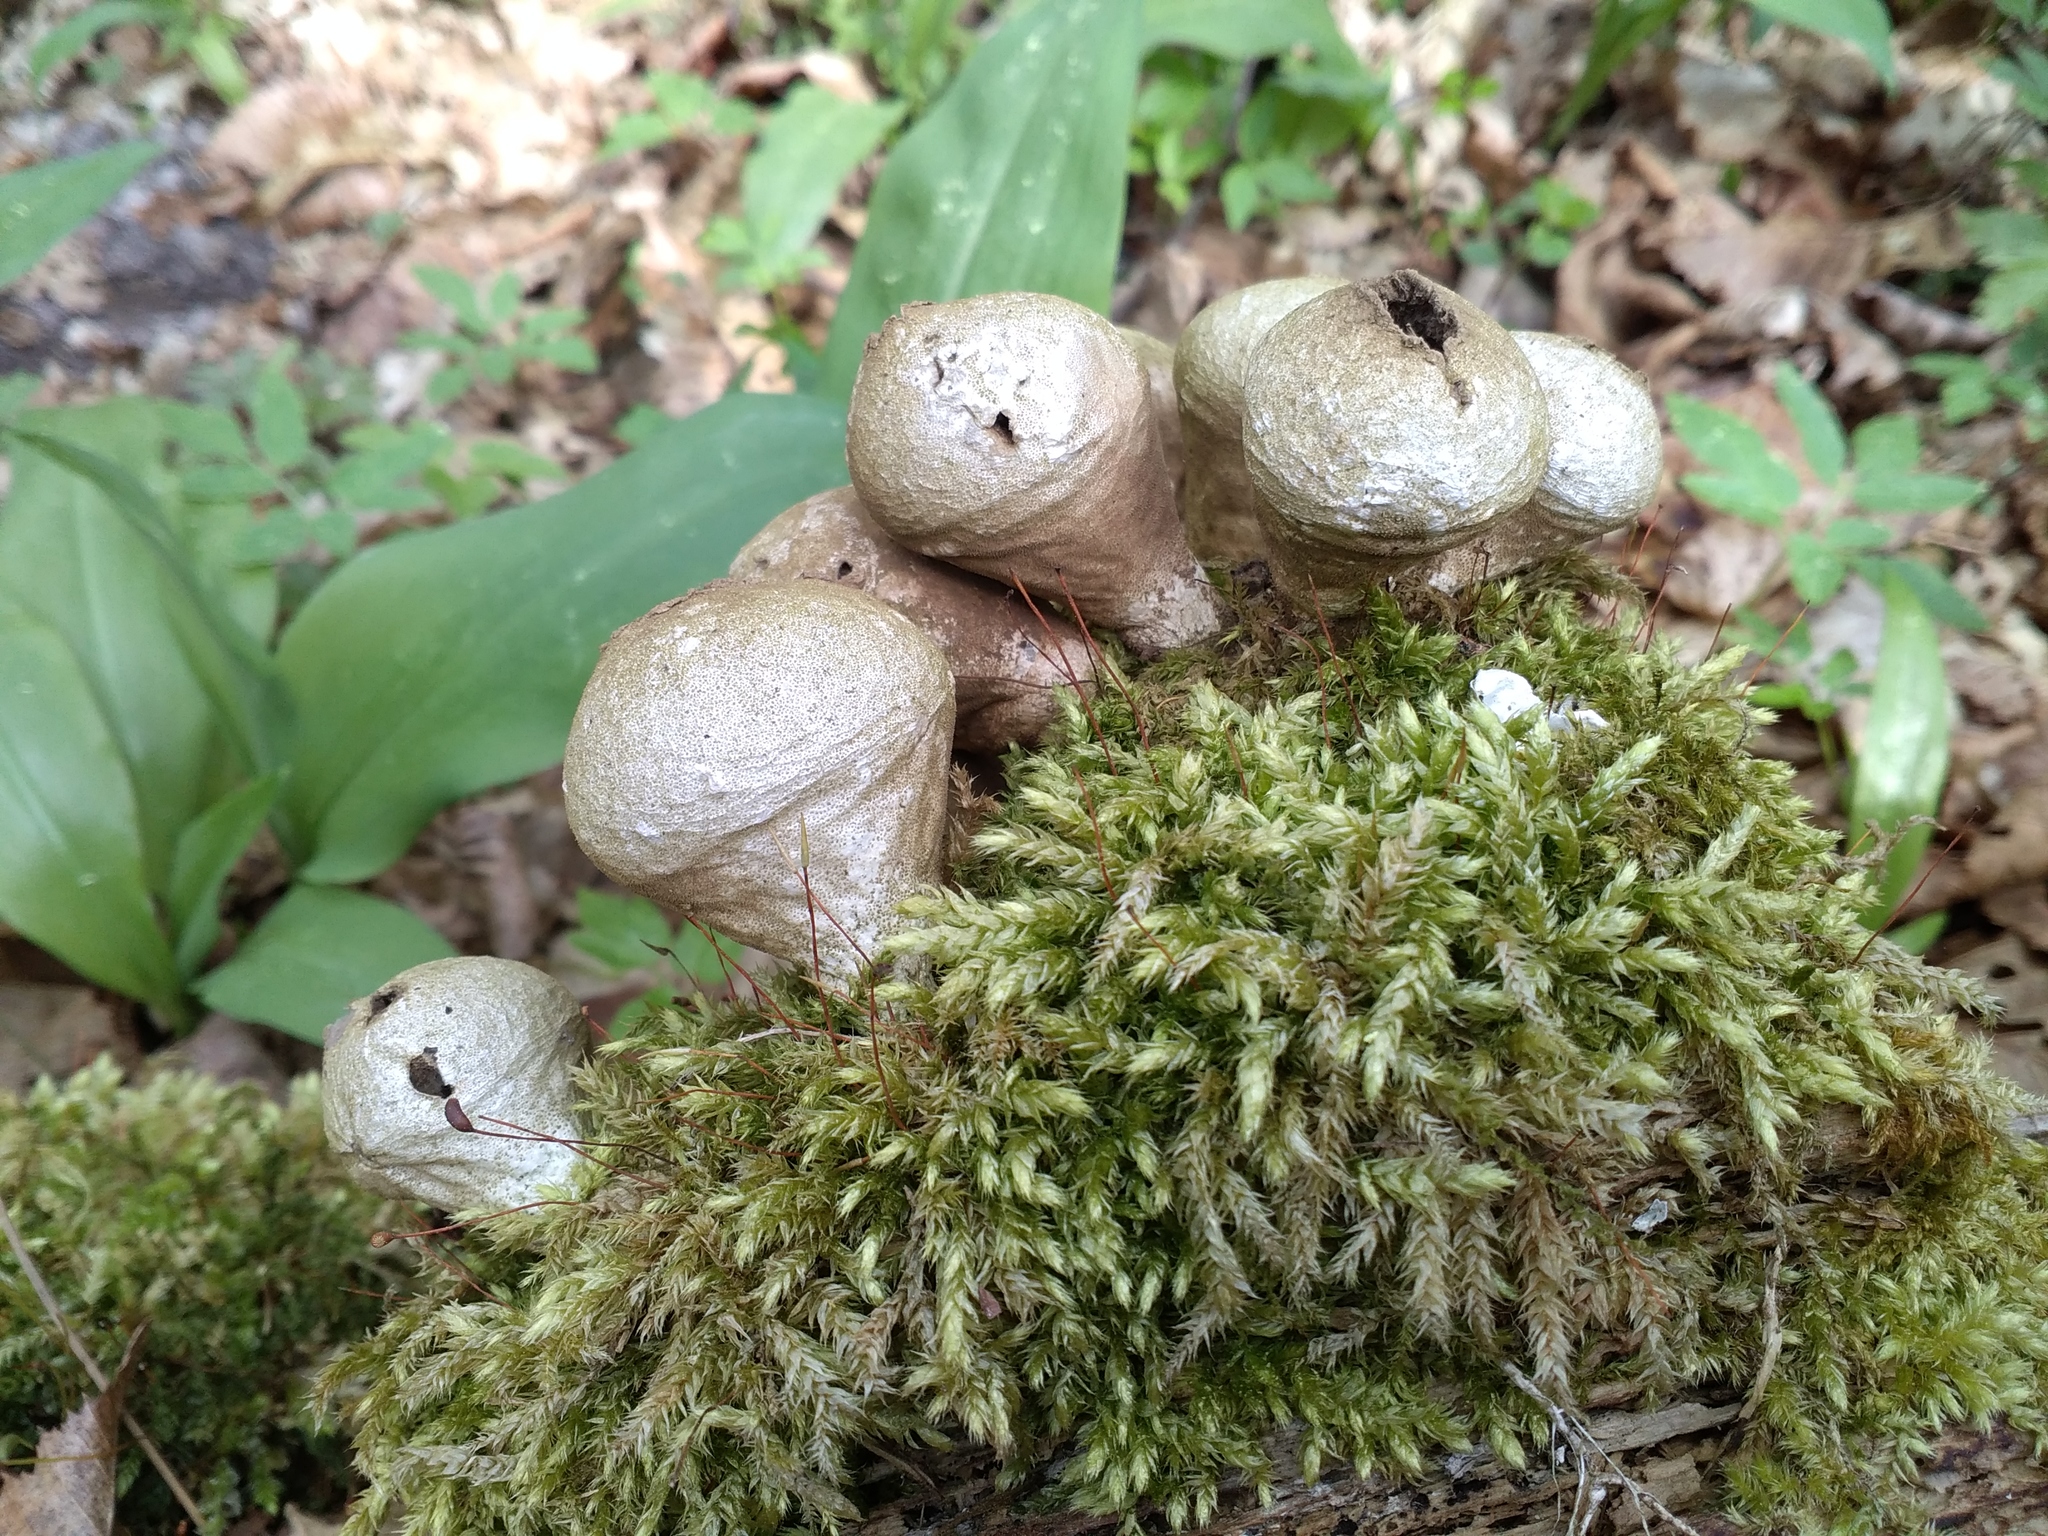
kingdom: Fungi
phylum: Basidiomycota
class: Agaricomycetes
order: Agaricales
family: Lycoperdaceae
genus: Apioperdon
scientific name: Apioperdon pyriforme
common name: Pear-shaped puffball
